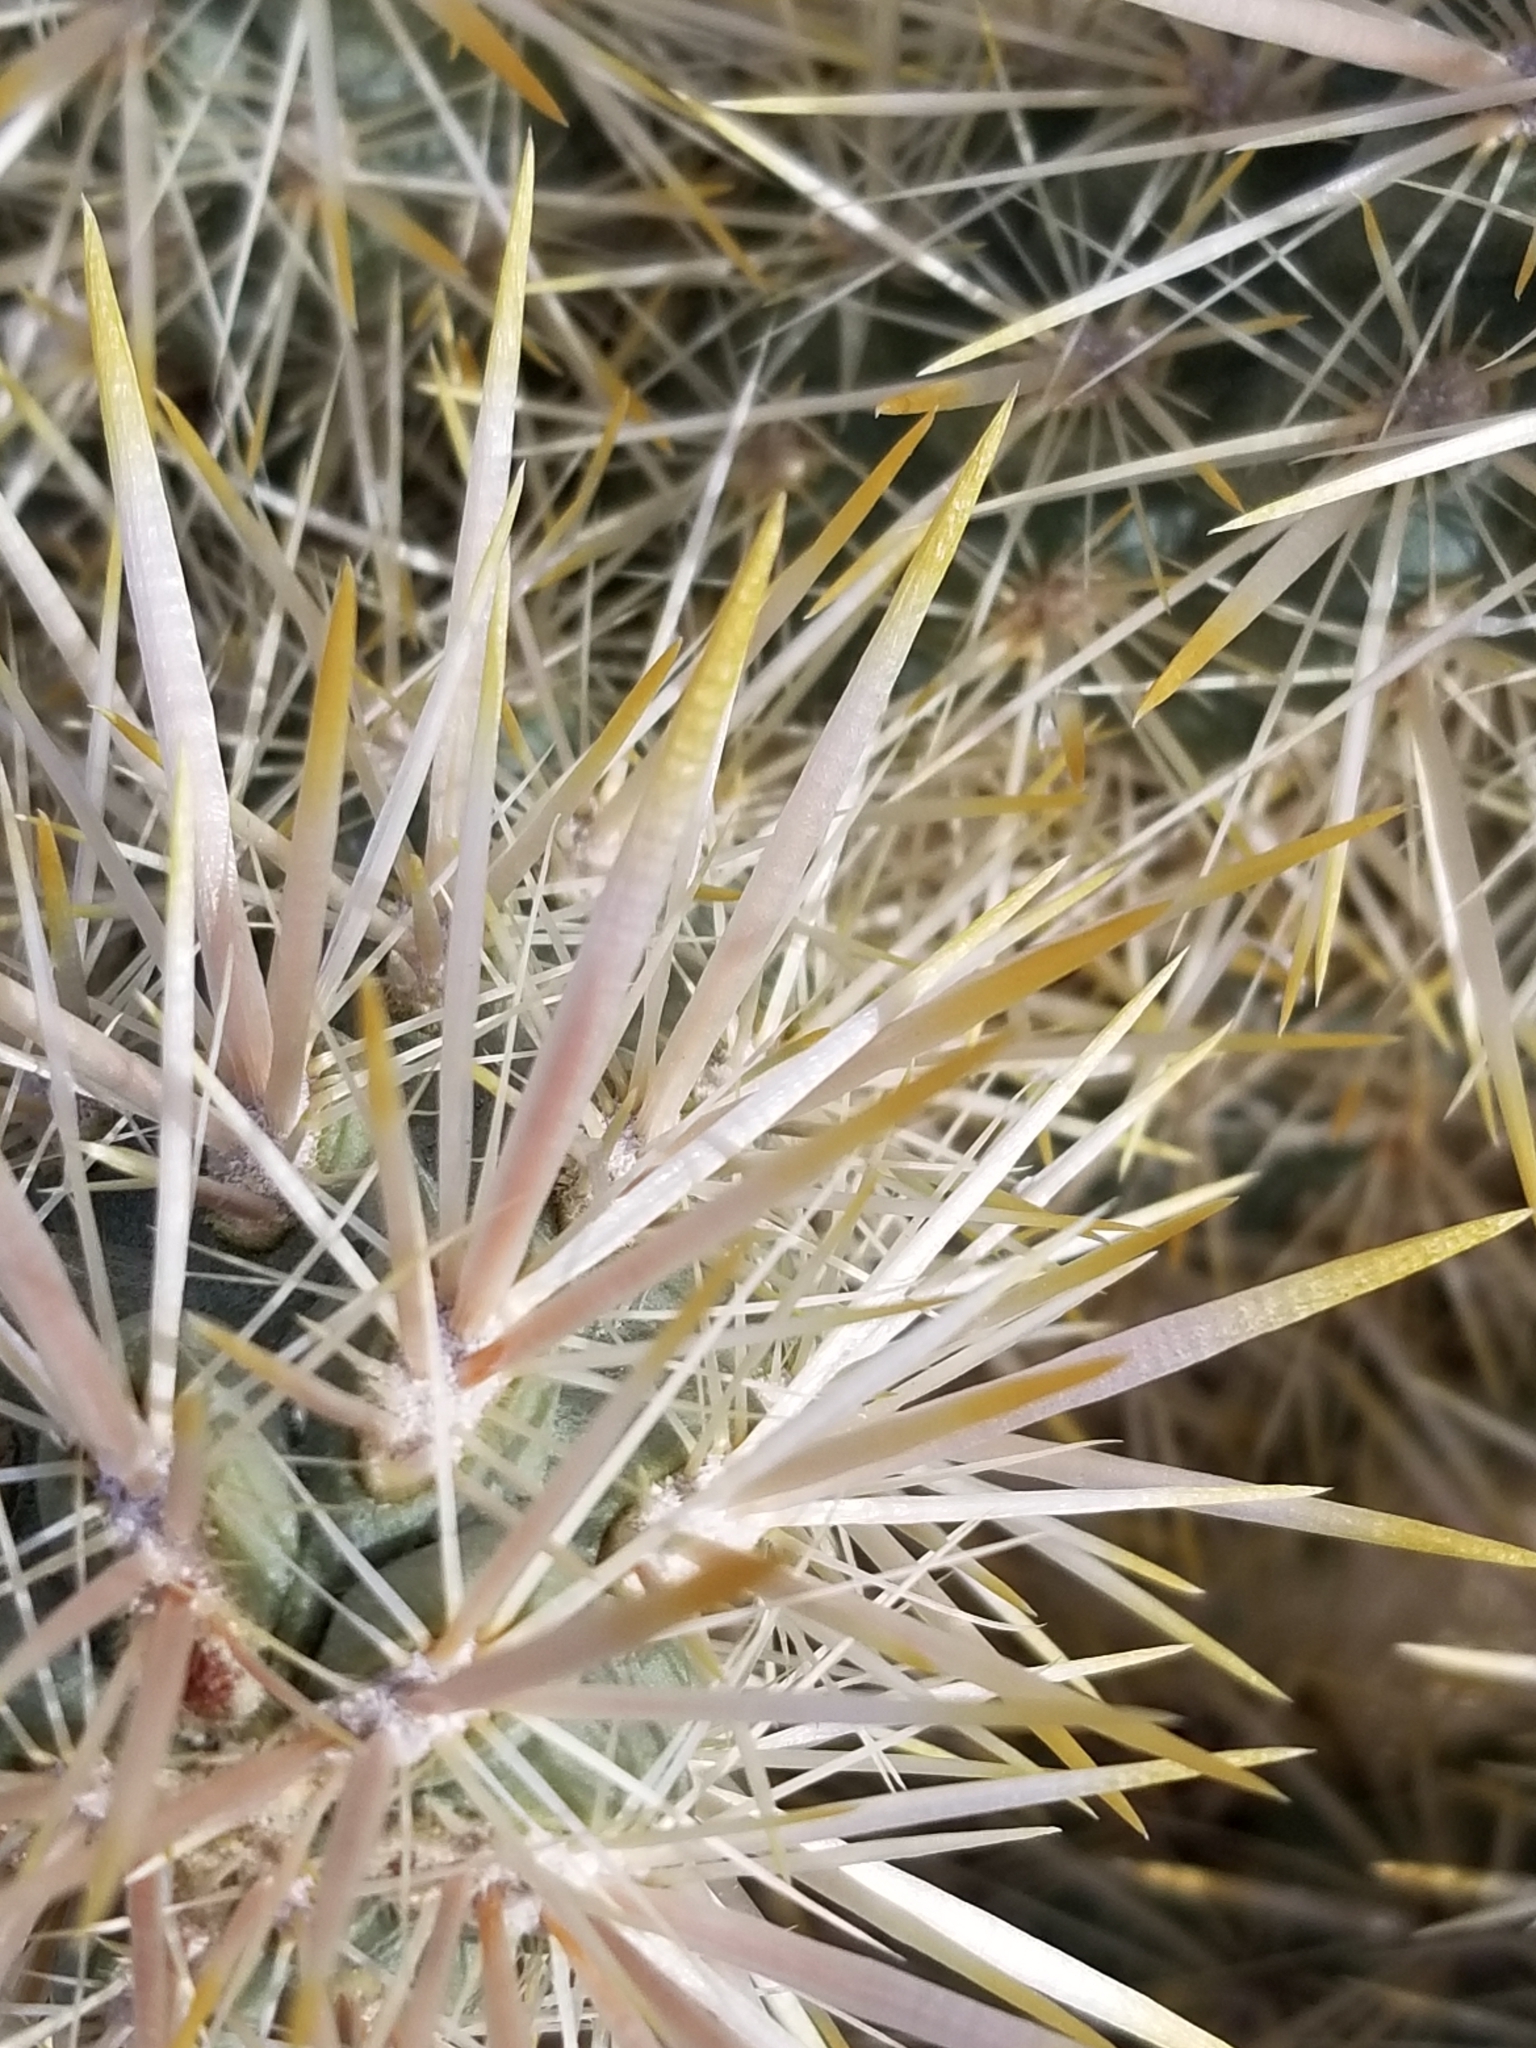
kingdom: Plantae
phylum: Tracheophyta
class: Magnoliopsida
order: Caryophyllales
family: Cactaceae
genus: Cylindropuntia
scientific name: Cylindropuntia echinocarpa
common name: Ground cholla
